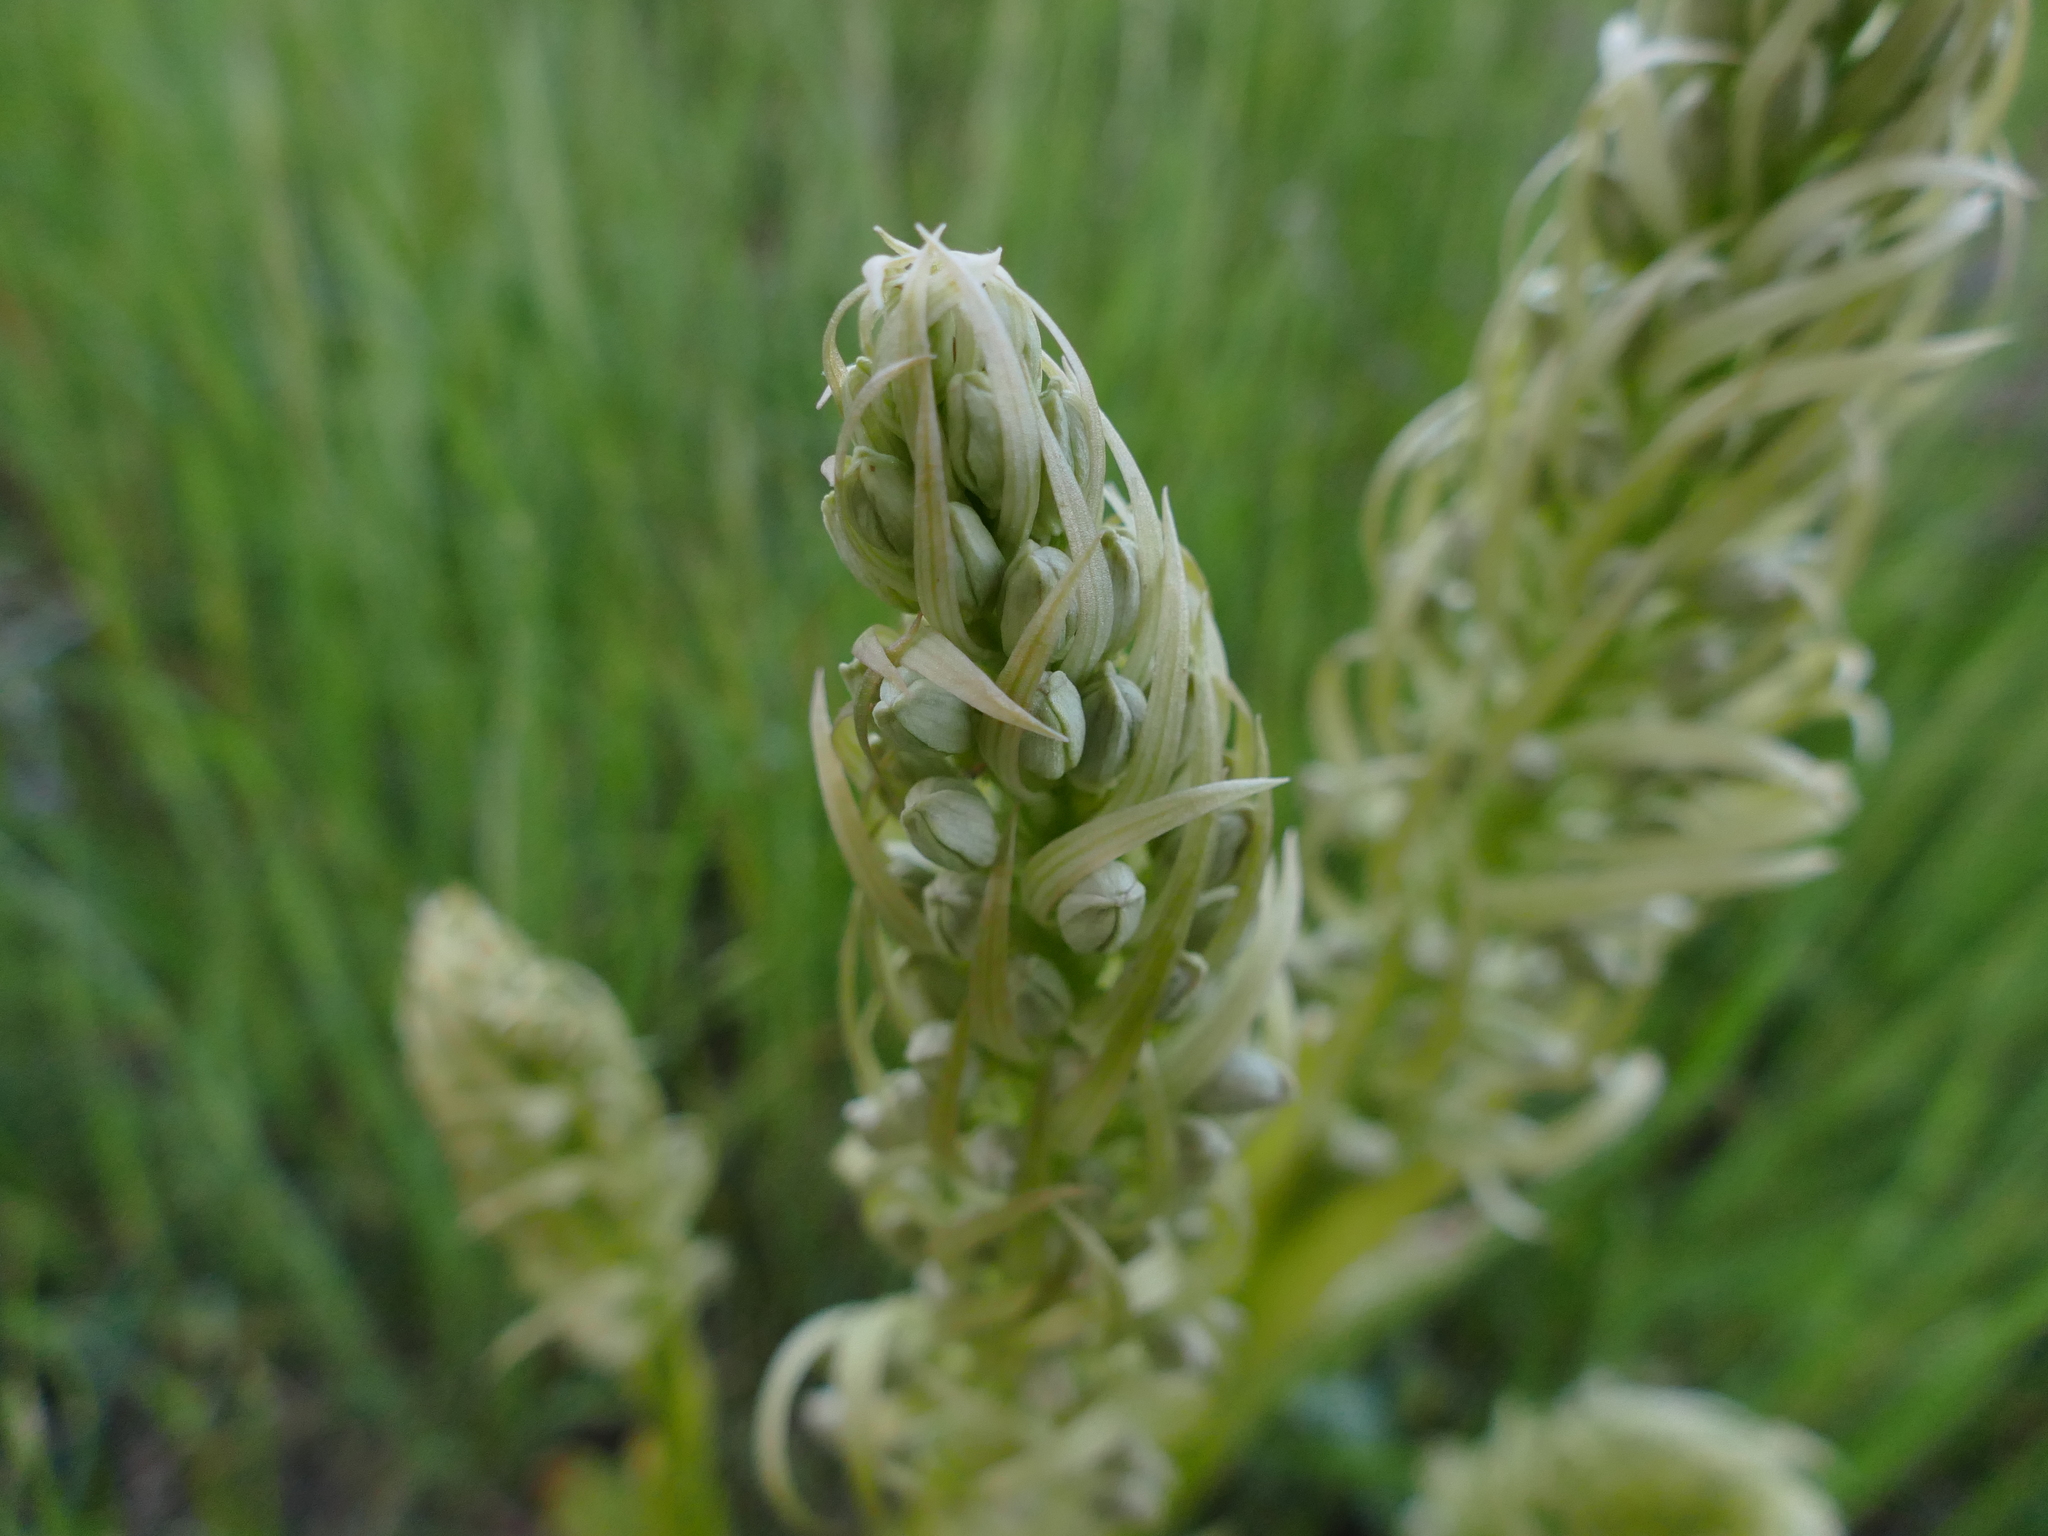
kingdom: Plantae
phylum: Tracheophyta
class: Liliopsida
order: Asparagales
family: Orchidaceae
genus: Himantoglossum
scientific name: Himantoglossum hircinum
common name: Lizard orchid
